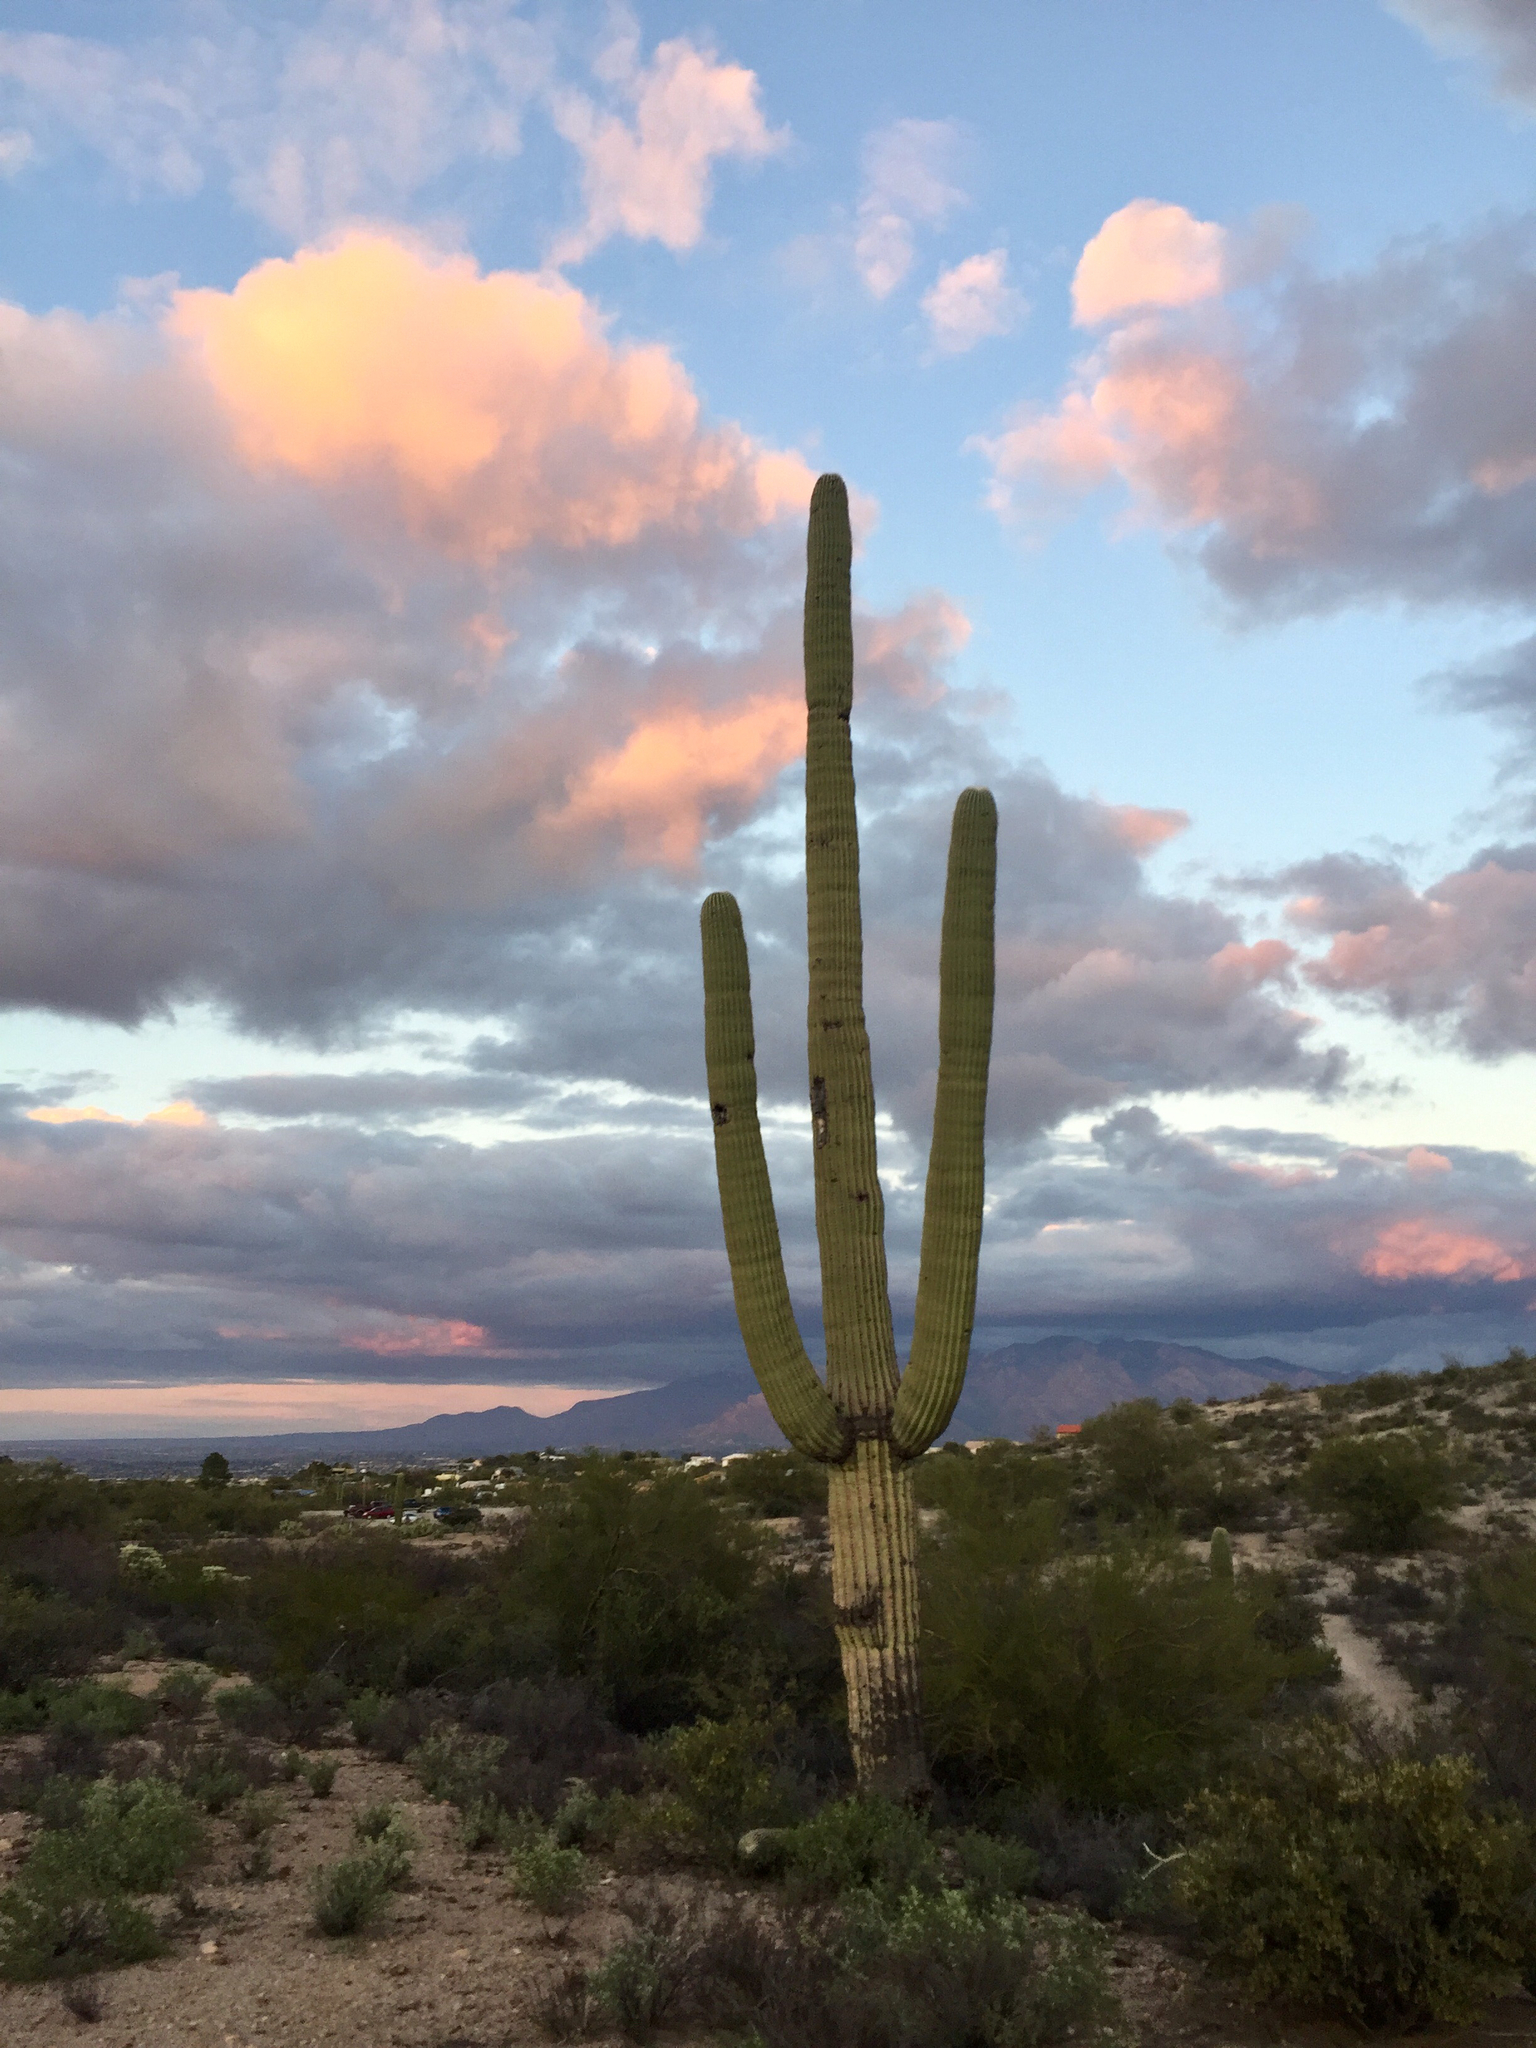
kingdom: Plantae
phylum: Tracheophyta
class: Magnoliopsida
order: Caryophyllales
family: Cactaceae
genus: Carnegiea
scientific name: Carnegiea gigantea
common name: Saguaro
